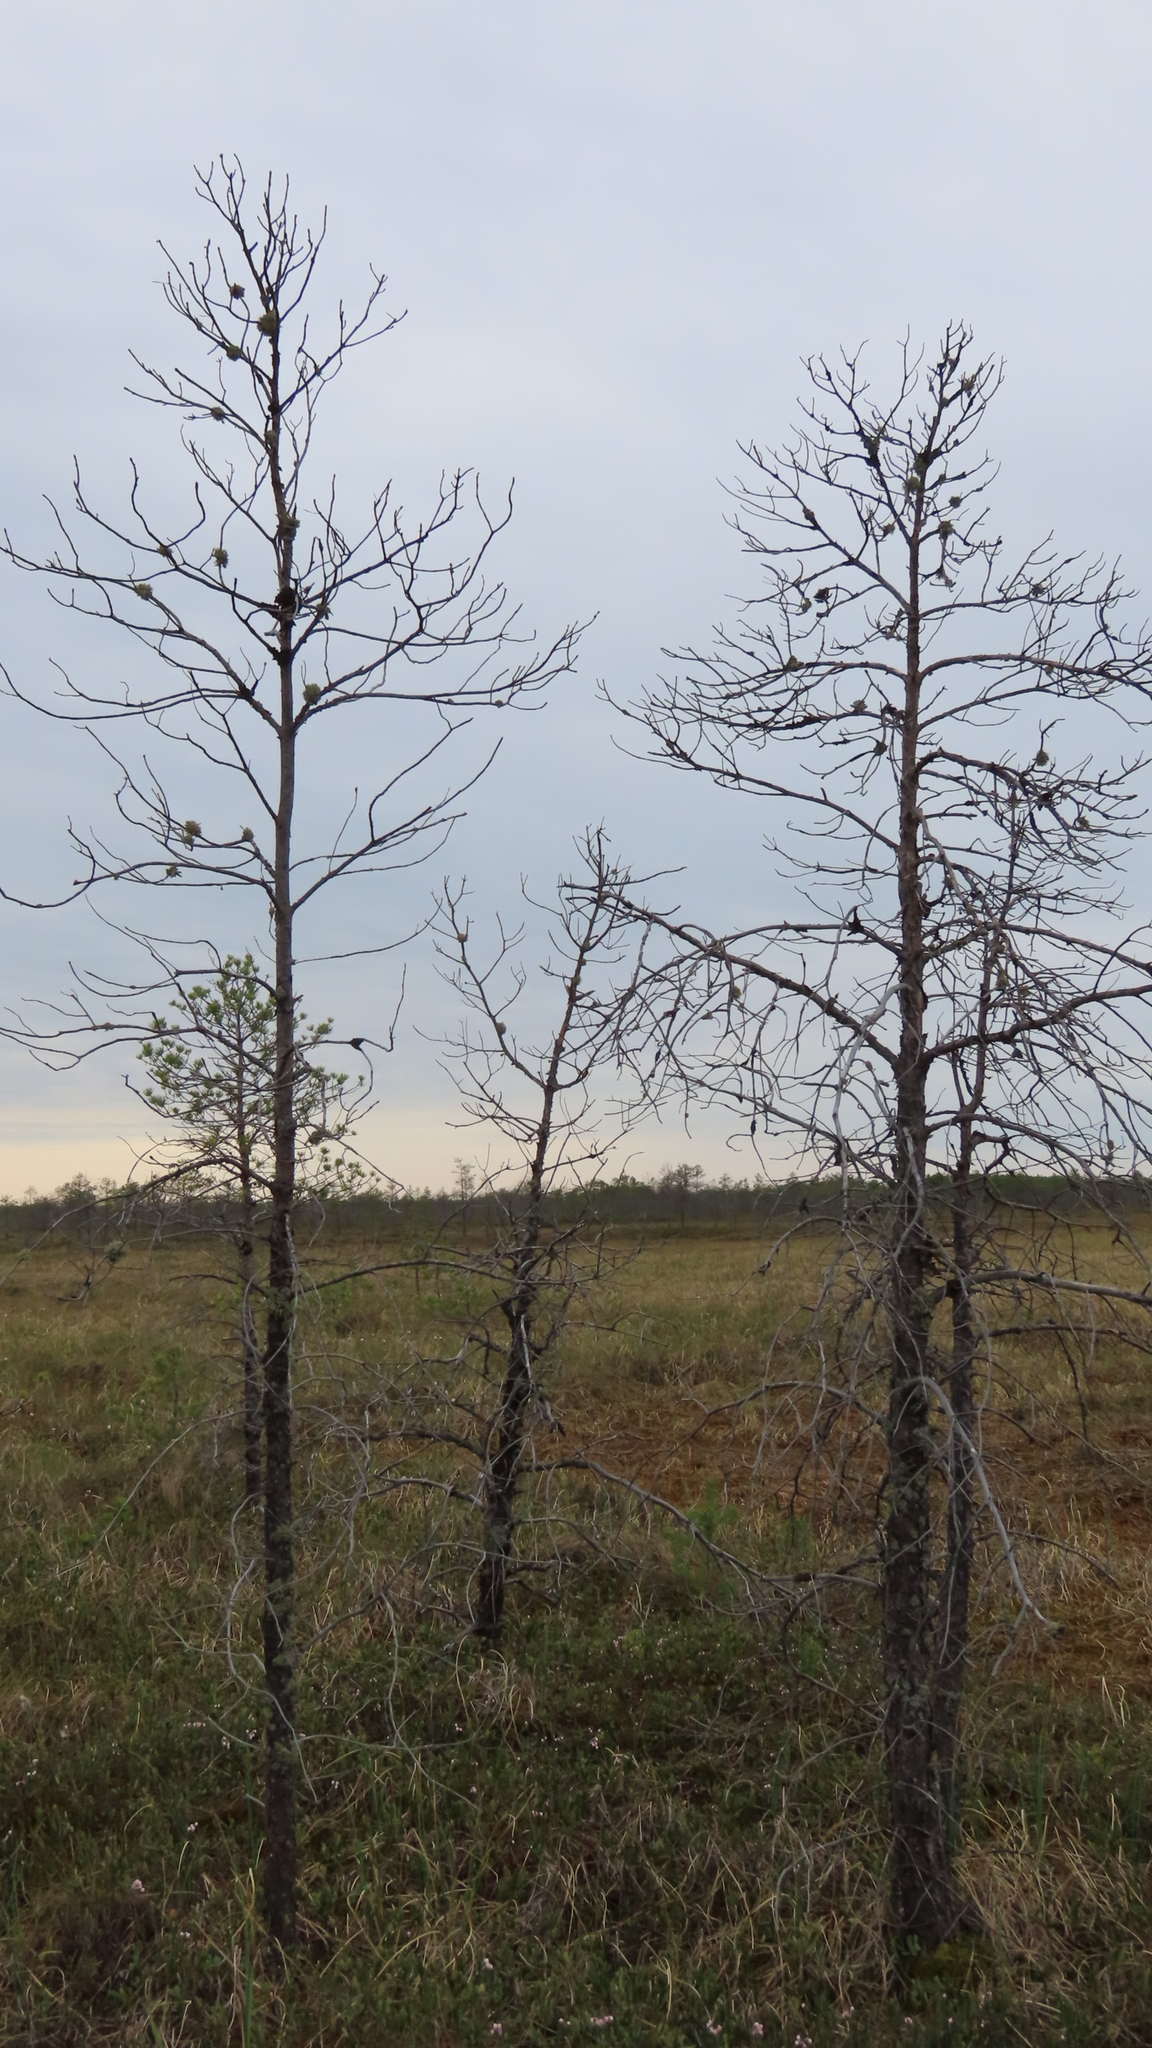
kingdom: Plantae
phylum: Tracheophyta
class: Pinopsida
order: Pinales
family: Pinaceae
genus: Pinus
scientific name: Pinus sylvestris
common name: Scots pine
